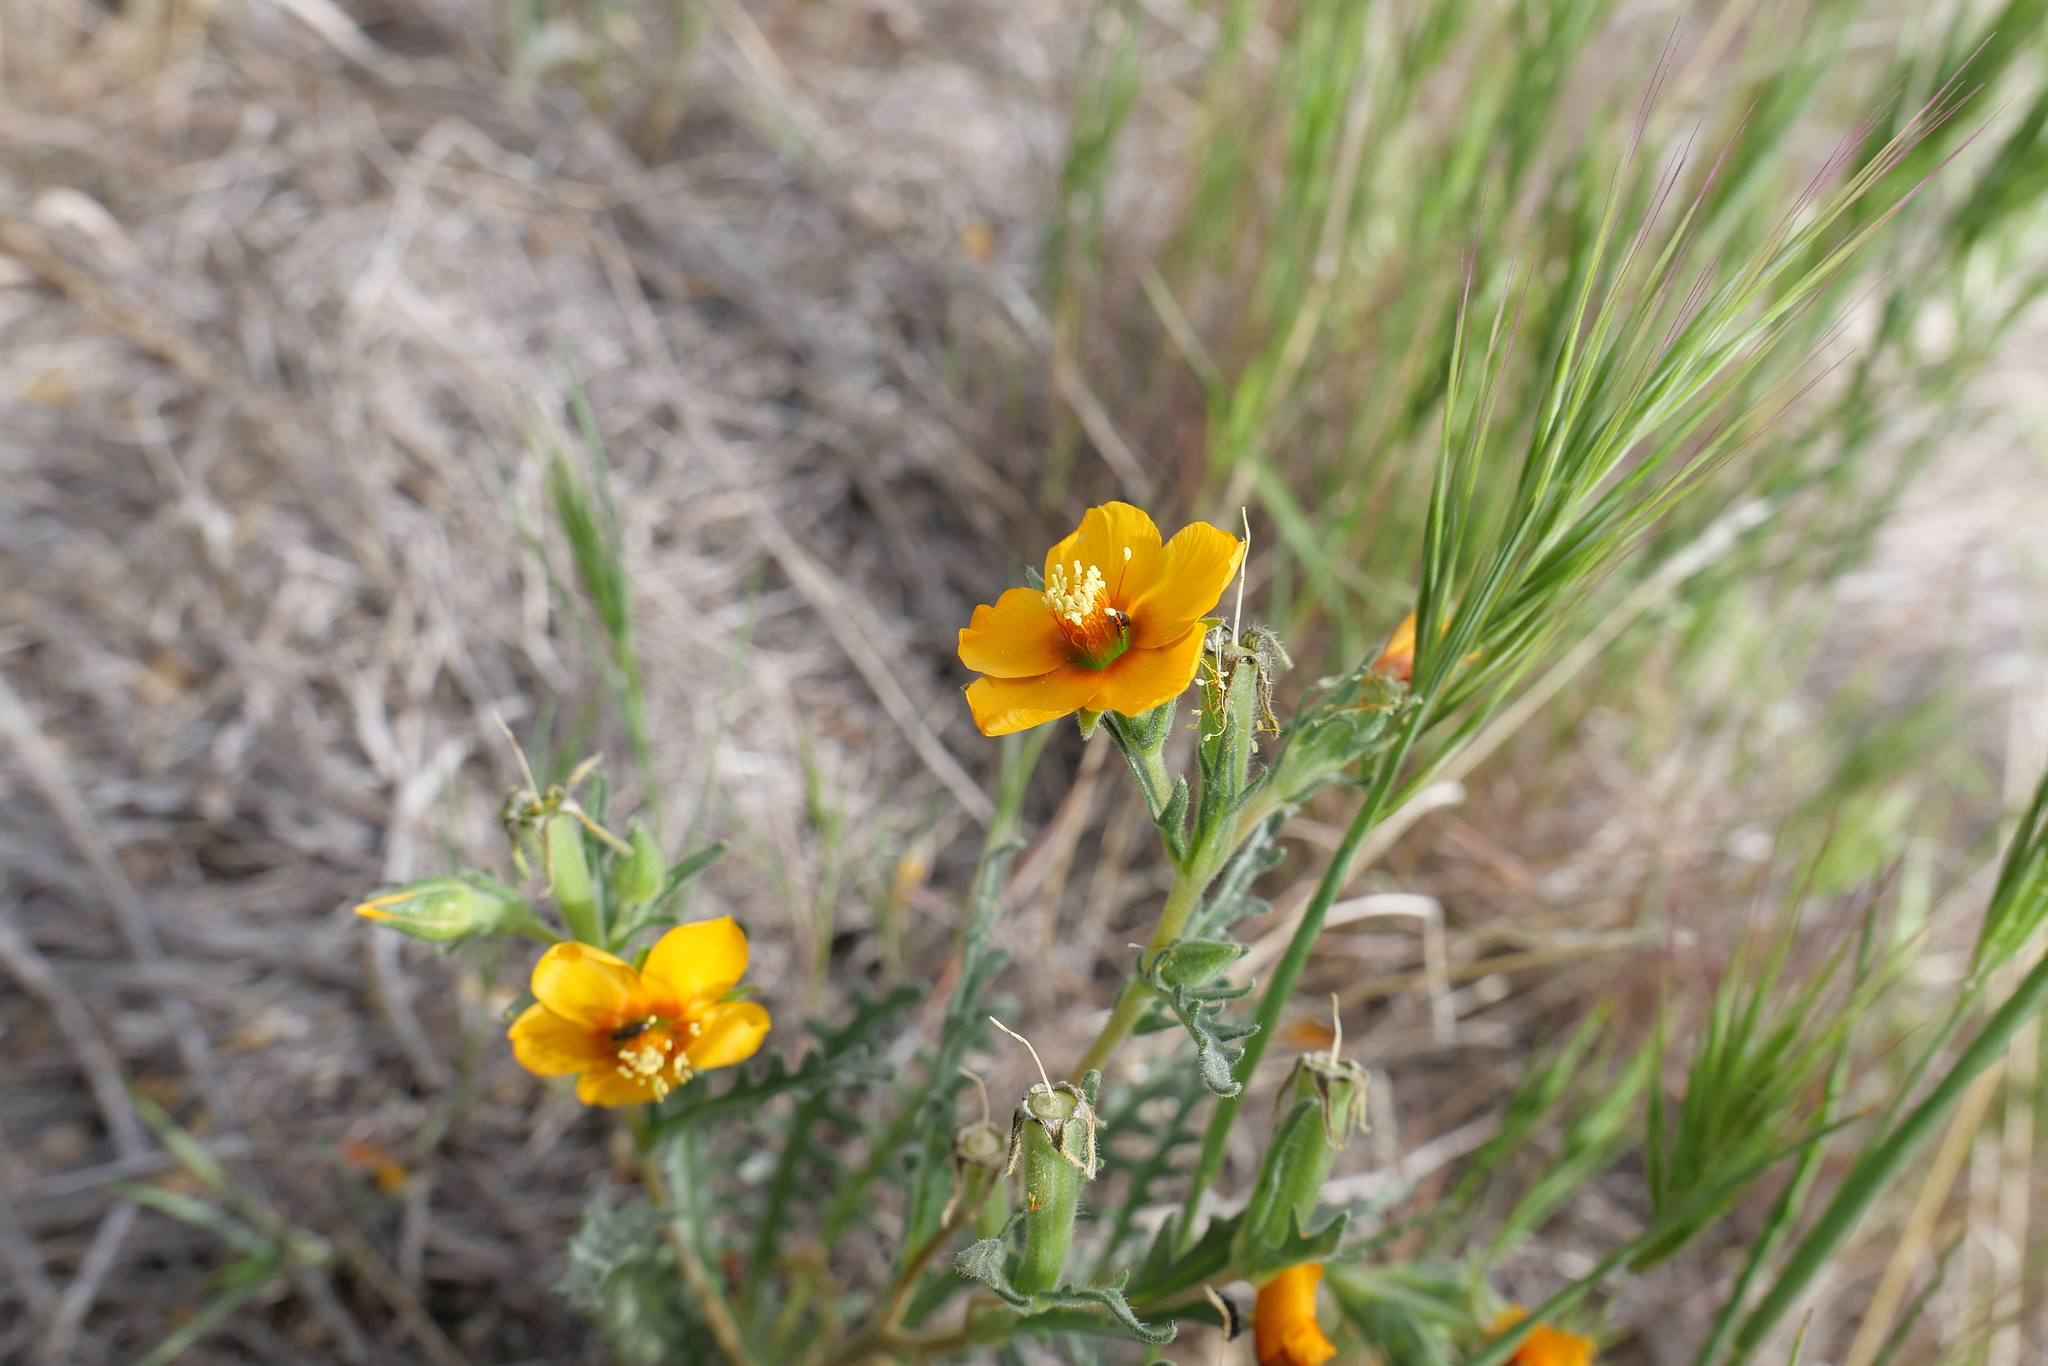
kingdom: Plantae
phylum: Tracheophyta
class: Magnoliopsida
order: Cornales
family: Loasaceae
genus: Mentzelia
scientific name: Mentzelia pectinata
